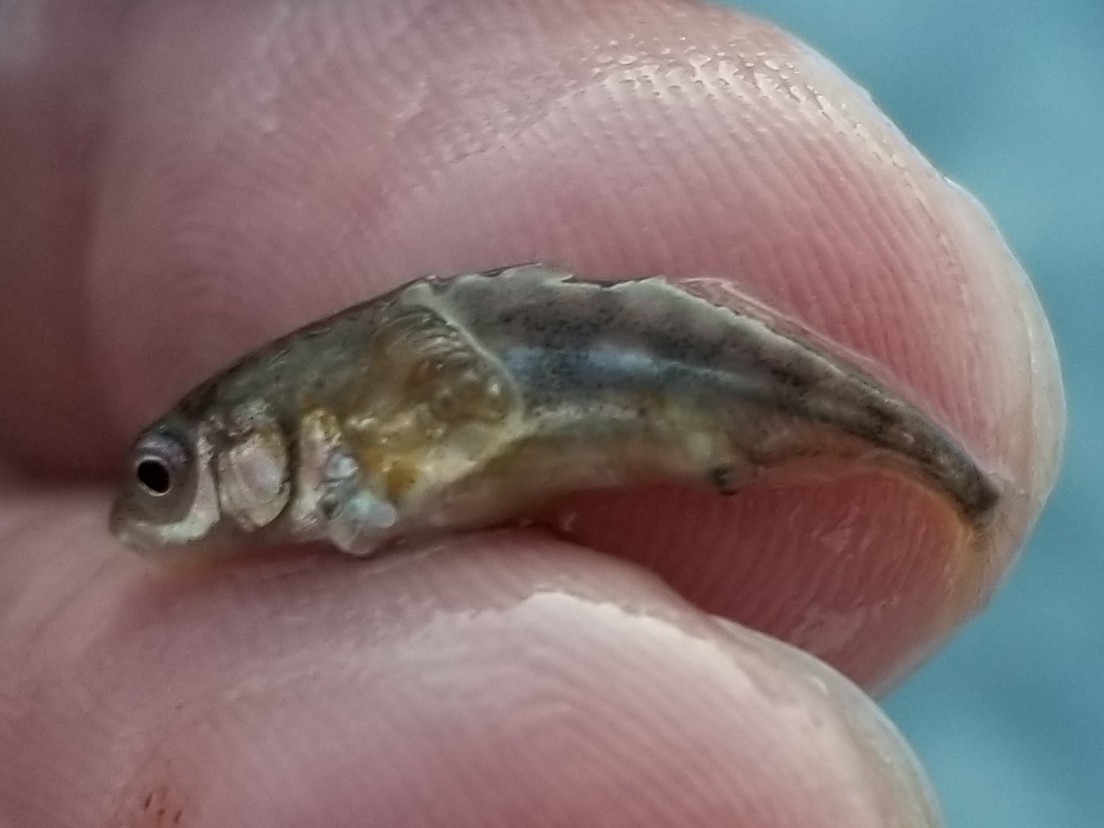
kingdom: Animalia
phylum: Chordata
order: Gasterosteiformes
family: Gasterosteidae
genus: Gasterosteus
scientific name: Gasterosteus aculeatus
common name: Three-spined stickleback
